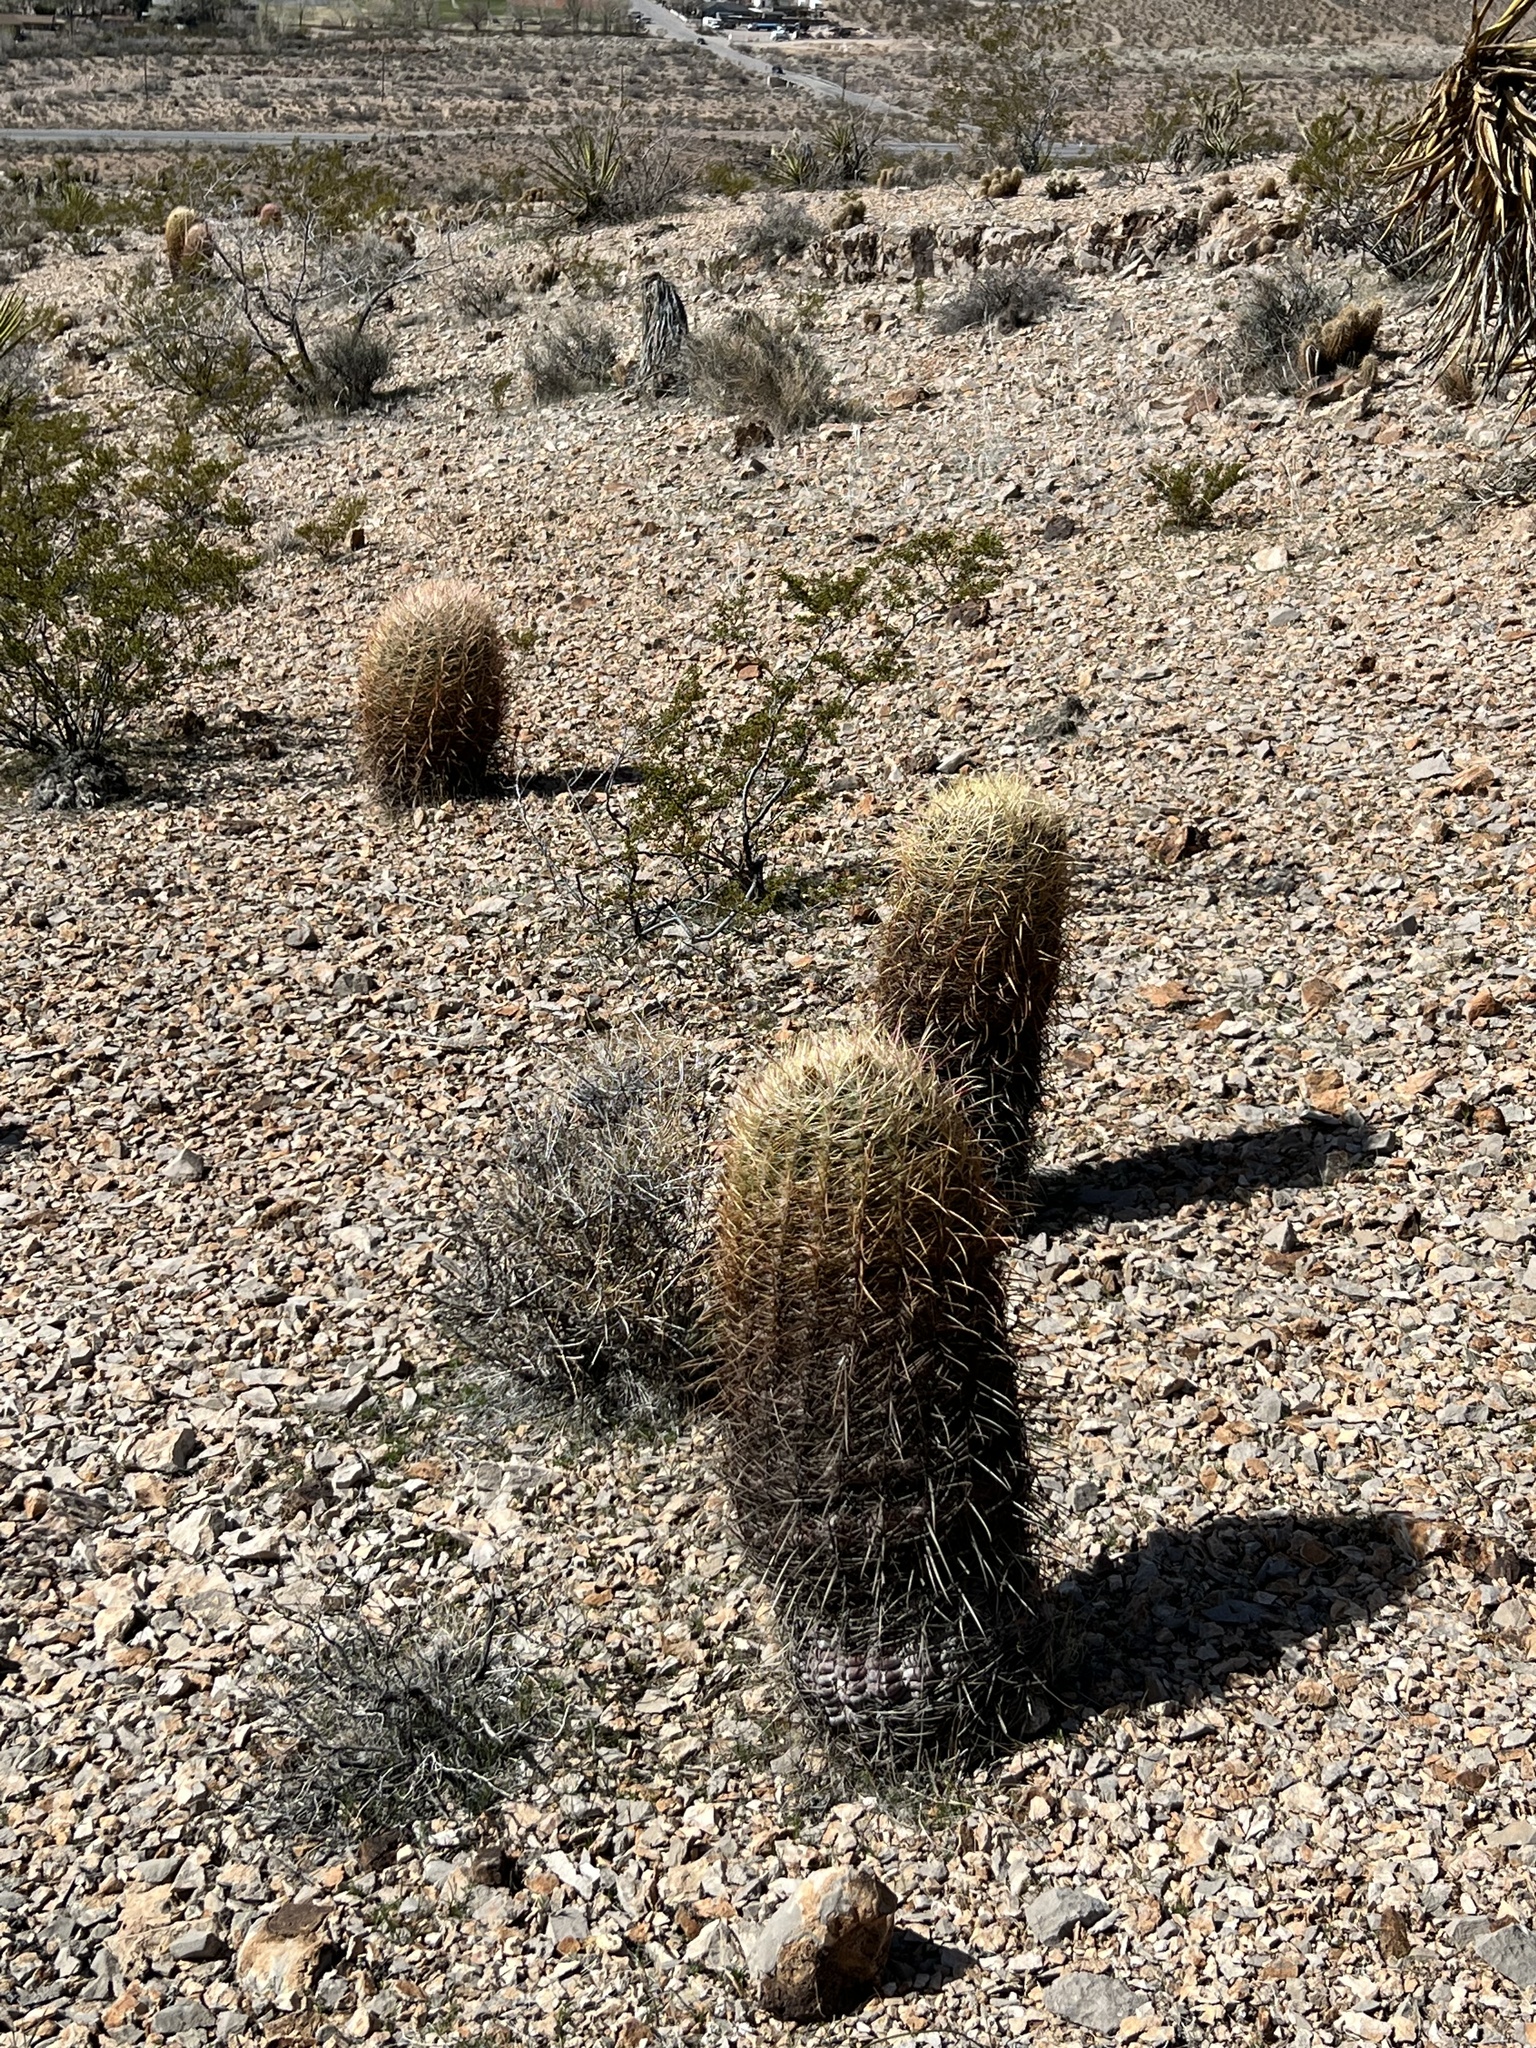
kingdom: Plantae
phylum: Tracheophyta
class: Magnoliopsida
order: Caryophyllales
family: Cactaceae
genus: Ferocactus
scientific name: Ferocactus cylindraceus
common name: California barrel cactus
